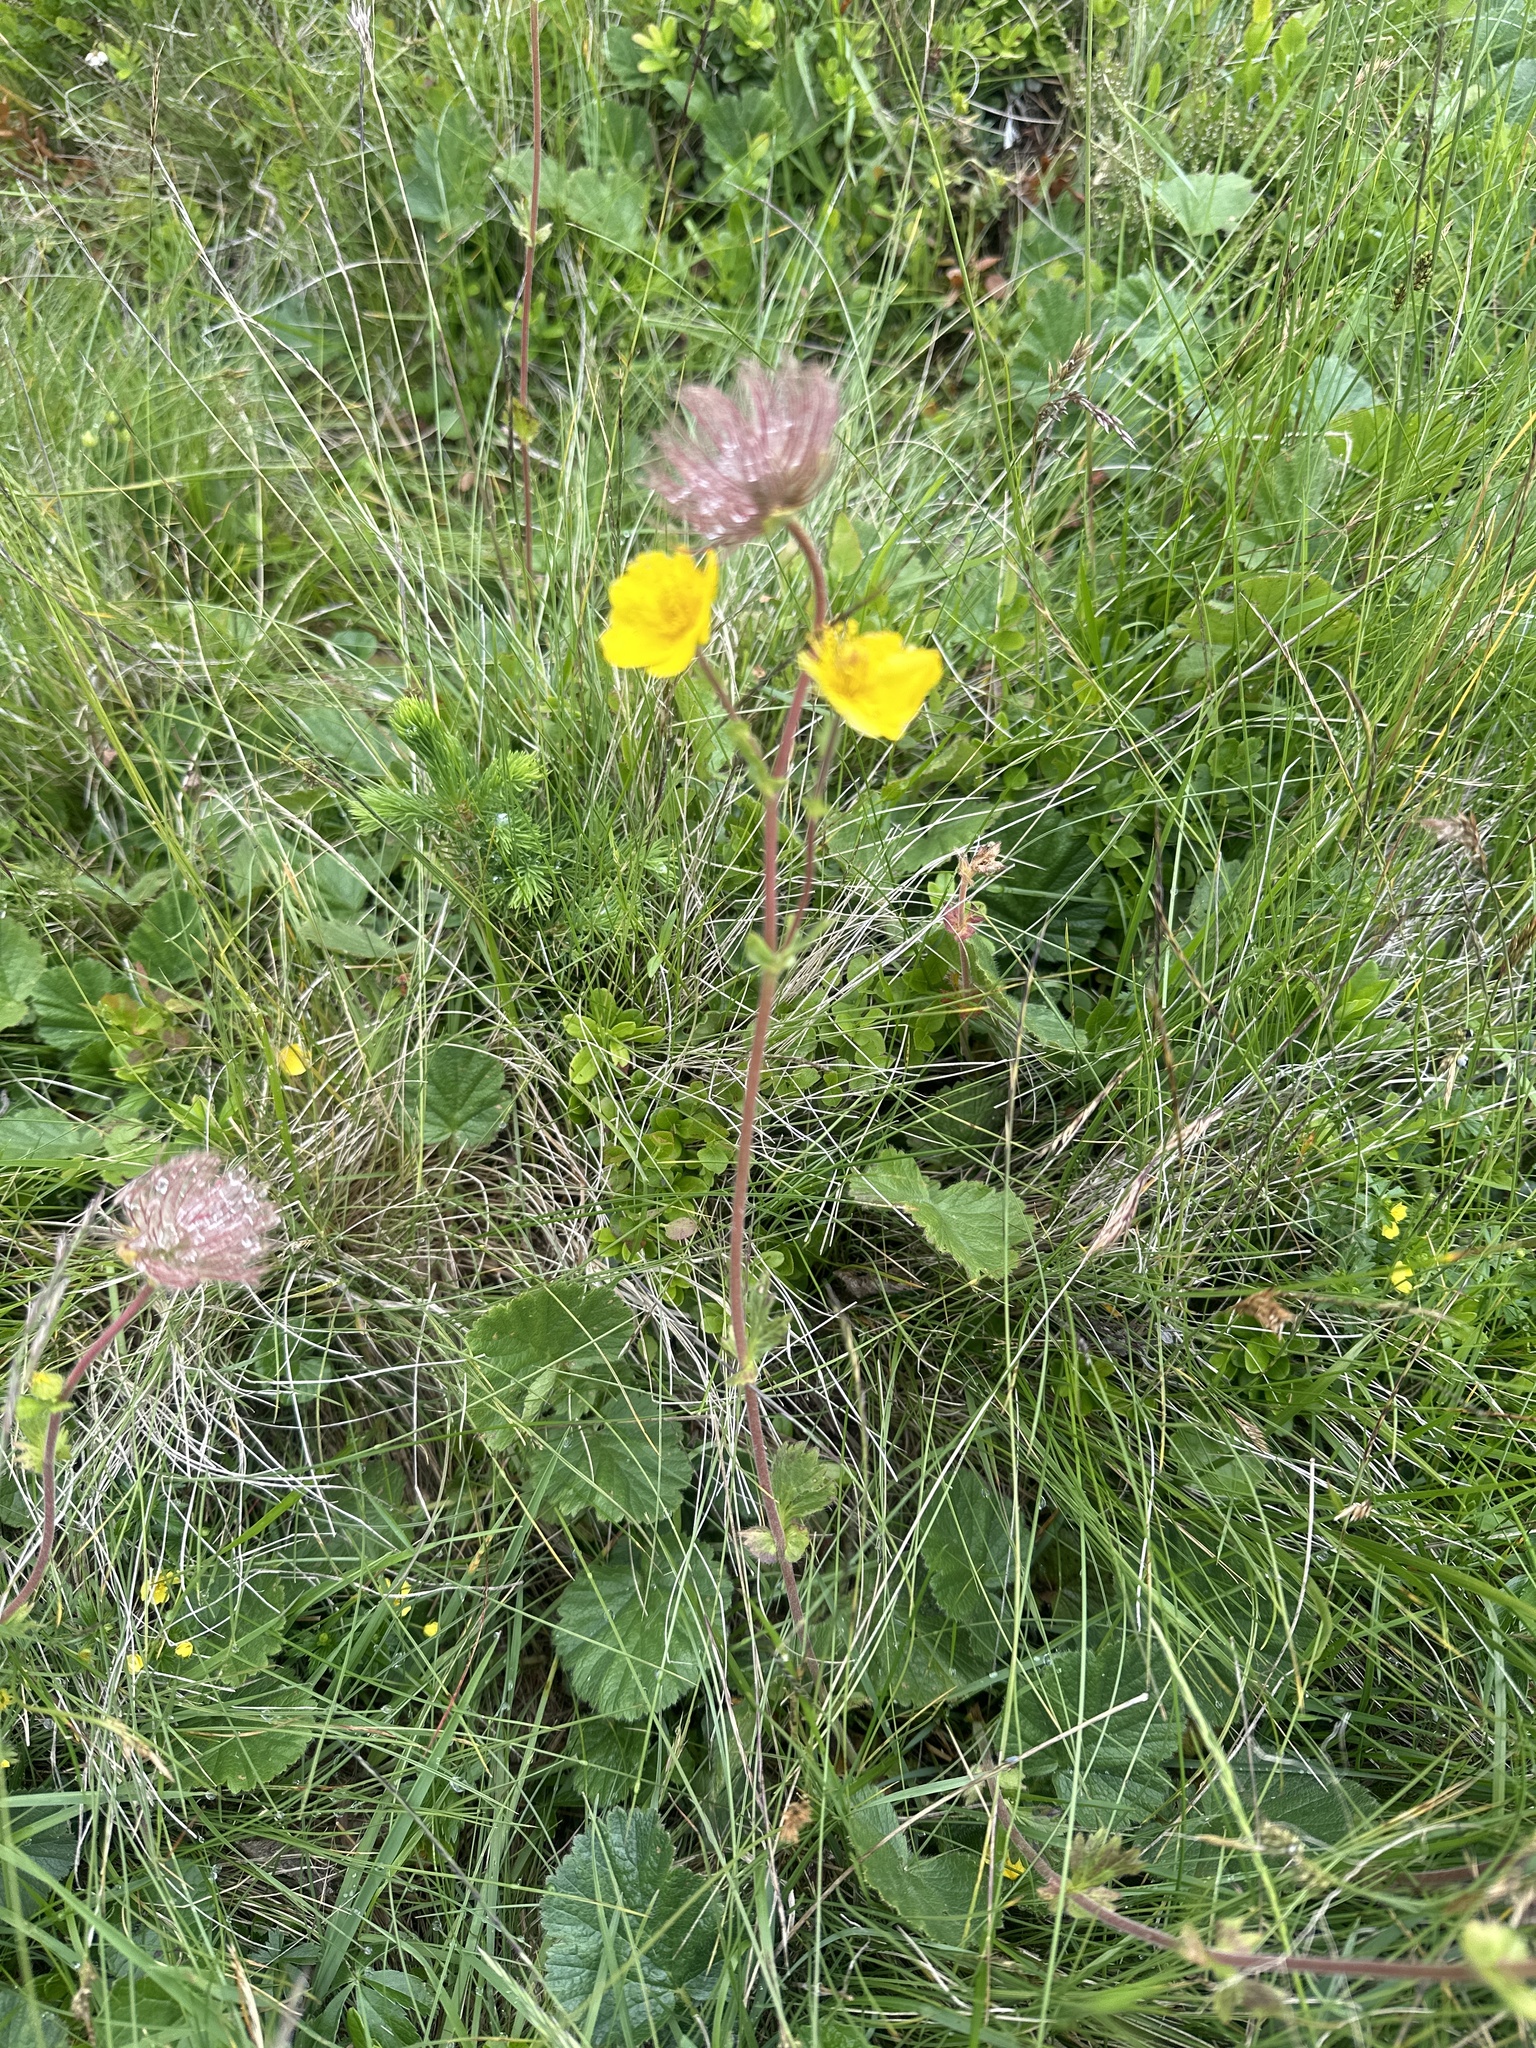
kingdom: Plantae
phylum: Tracheophyta
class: Magnoliopsida
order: Rosales
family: Rosaceae
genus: Geum
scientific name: Geum montanum
